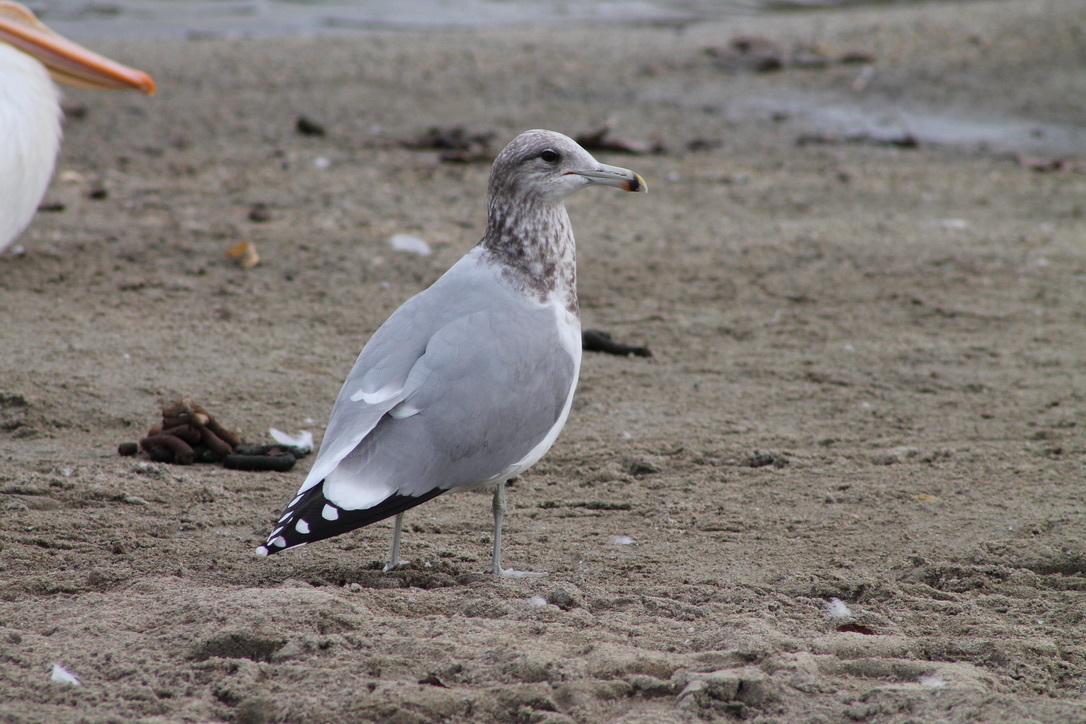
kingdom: Animalia
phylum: Chordata
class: Aves
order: Charadriiformes
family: Laridae
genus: Larus
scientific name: Larus californicus
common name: California gull
